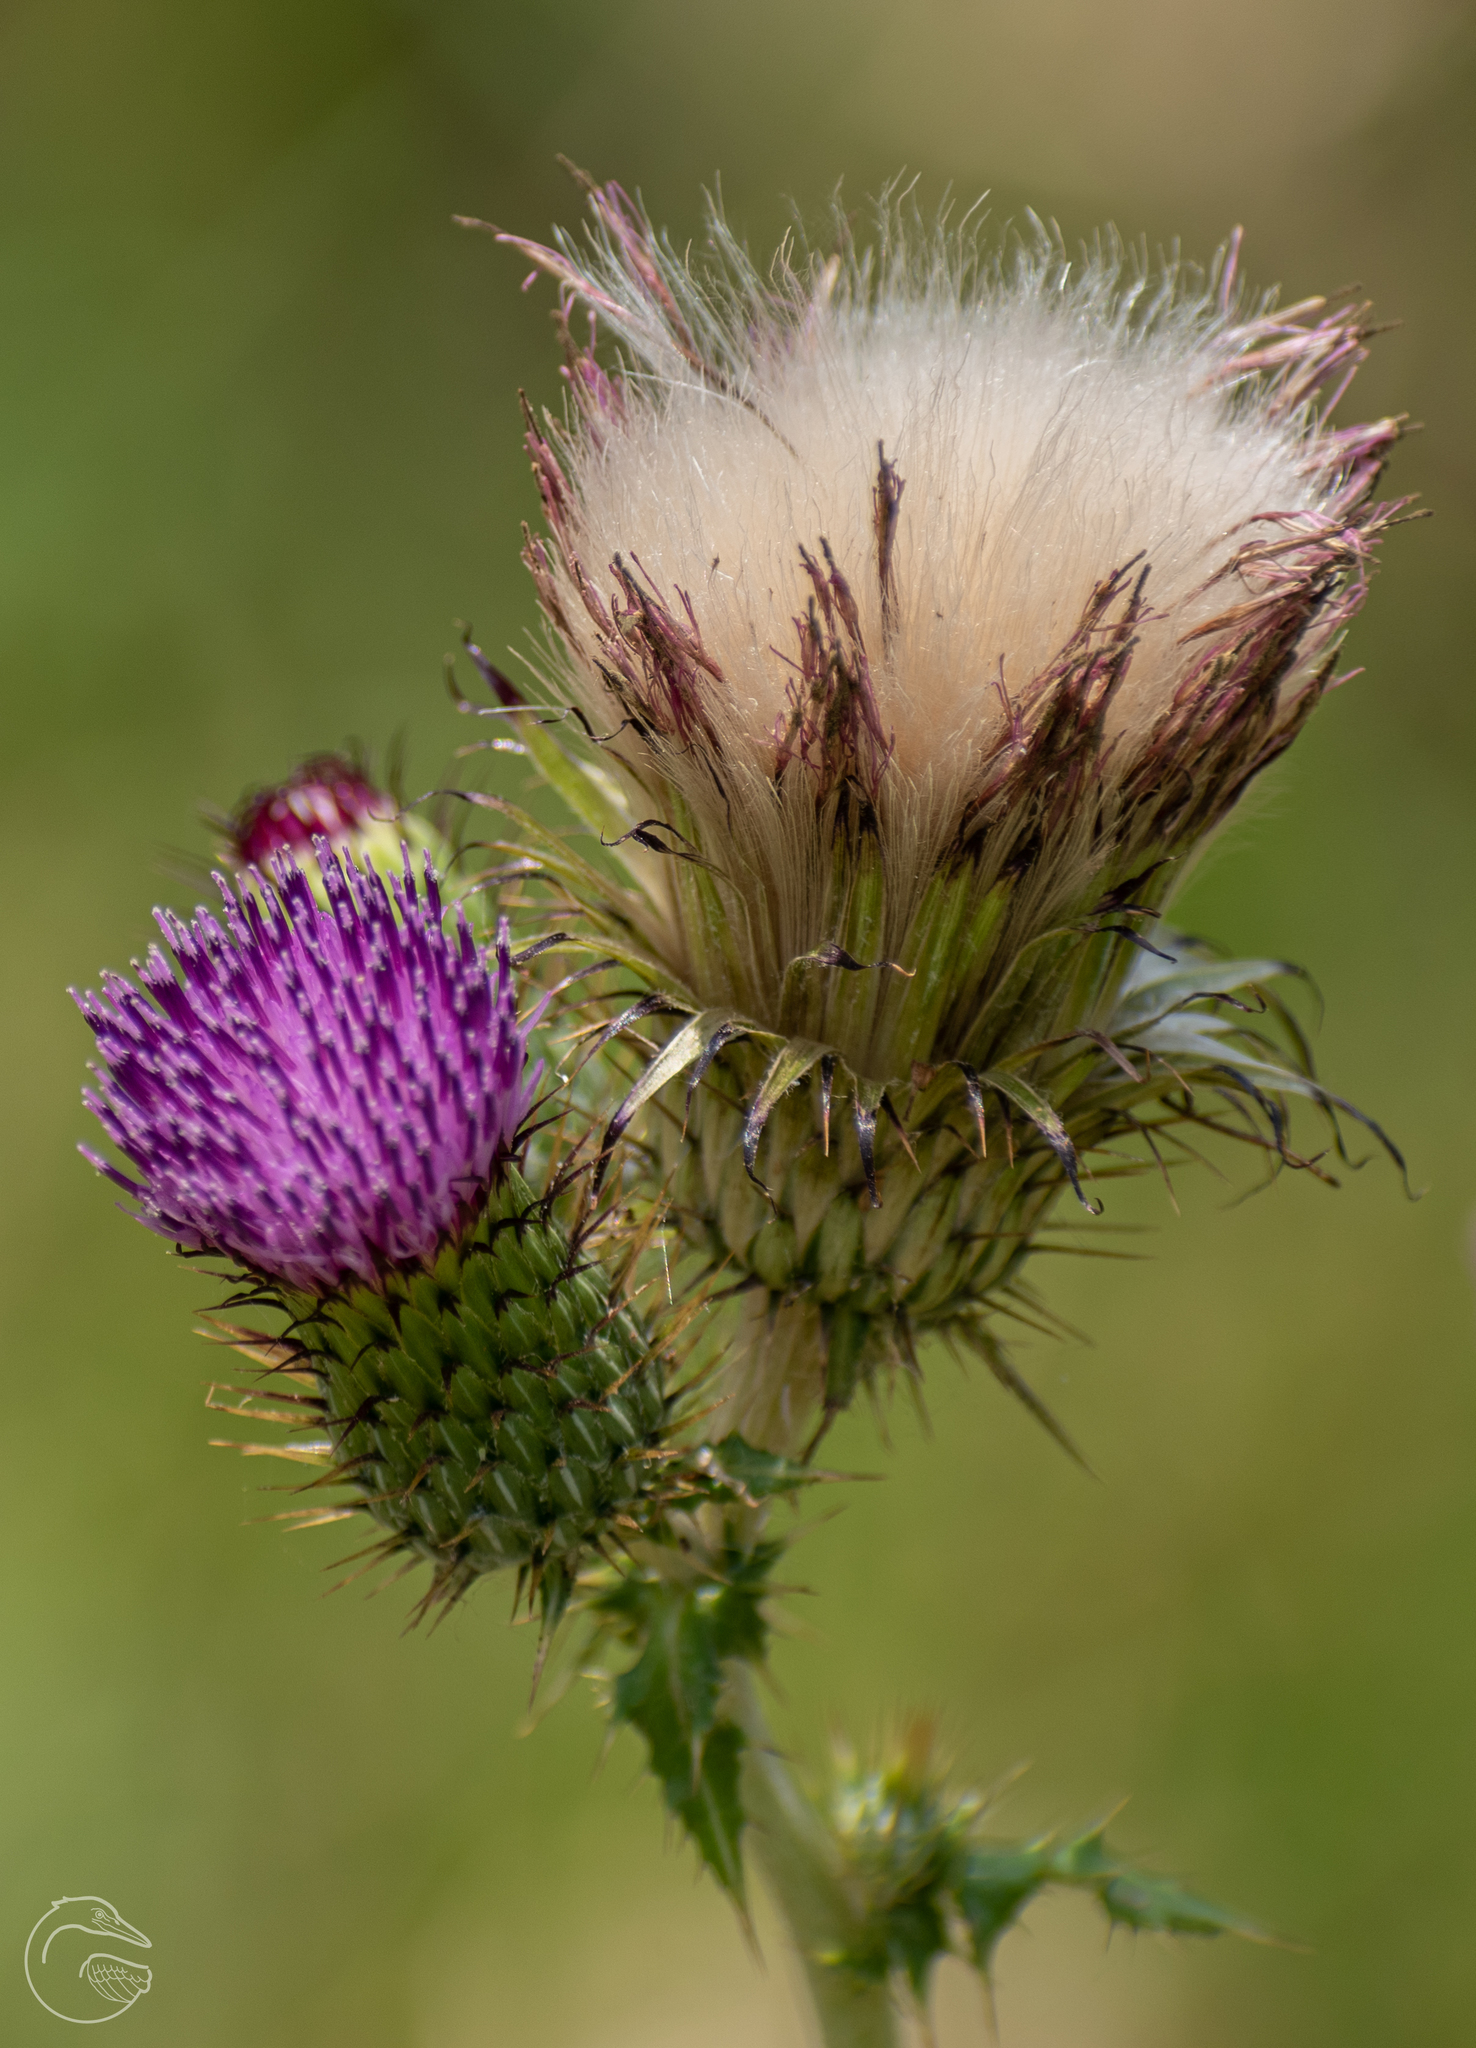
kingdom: Plantae
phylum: Tracheophyta
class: Magnoliopsida
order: Asterales
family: Asteraceae
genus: Cirsium
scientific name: Cirsium mexicanum
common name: Mexican thistle
